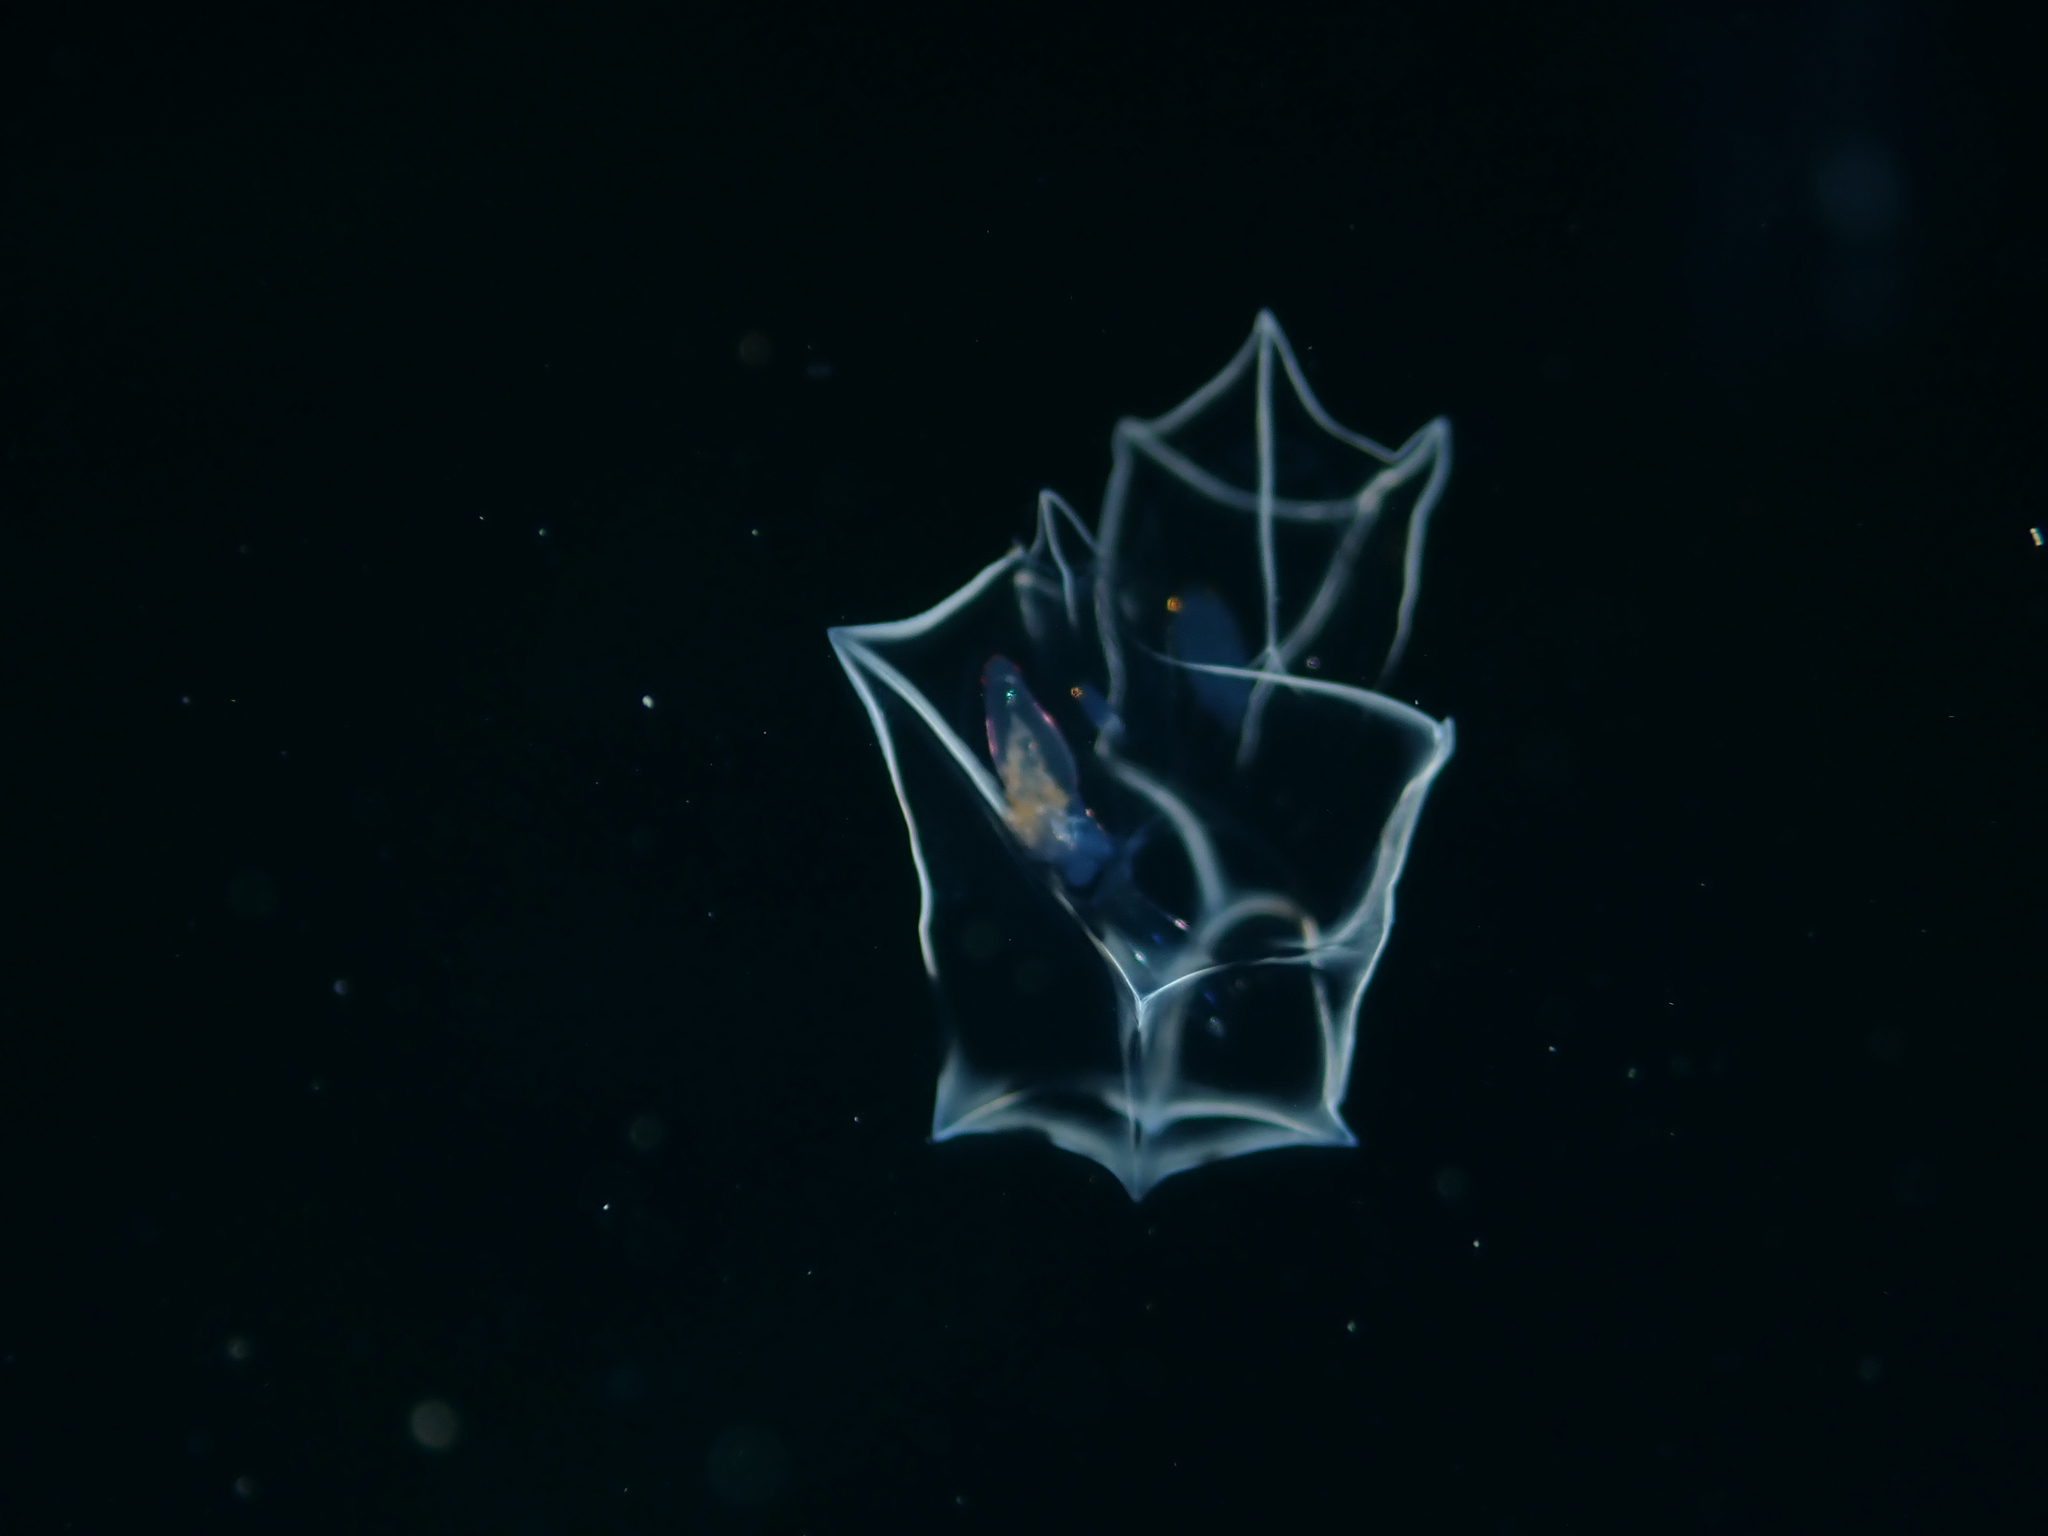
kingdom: Animalia
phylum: Cnidaria
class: Hydrozoa
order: Siphonophorae
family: Abylidae
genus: Bassia
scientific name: Bassia bassensis
